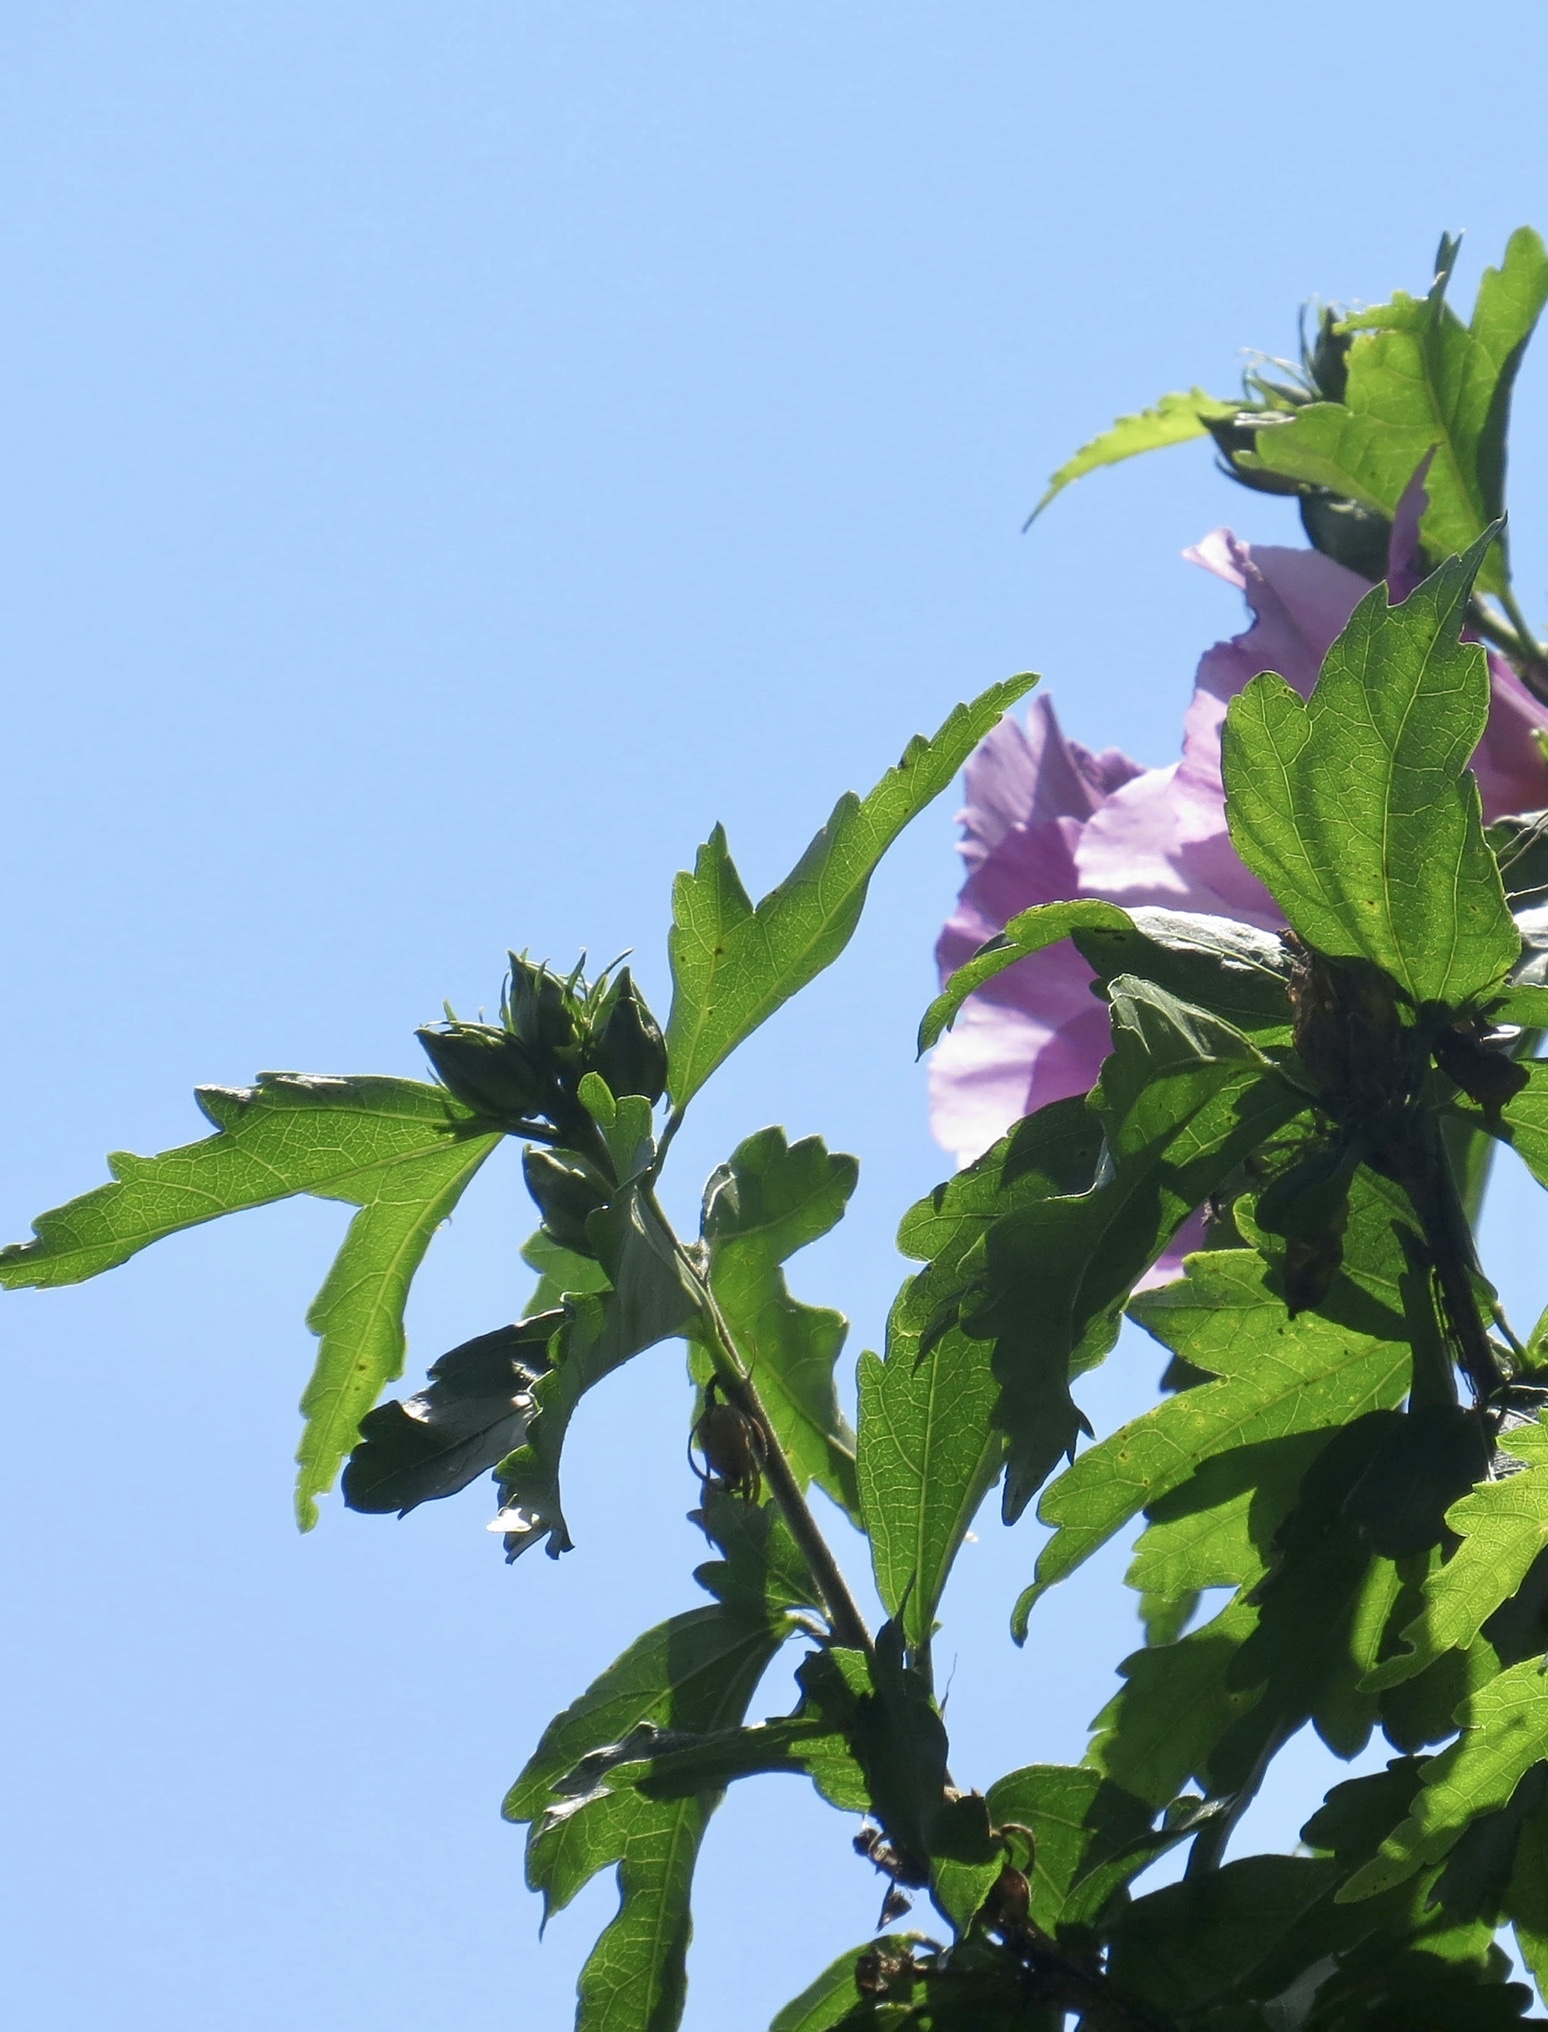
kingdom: Plantae
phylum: Tracheophyta
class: Magnoliopsida
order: Malvales
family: Malvaceae
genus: Hibiscus
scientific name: Hibiscus syriacus
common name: Syrian ketmia
